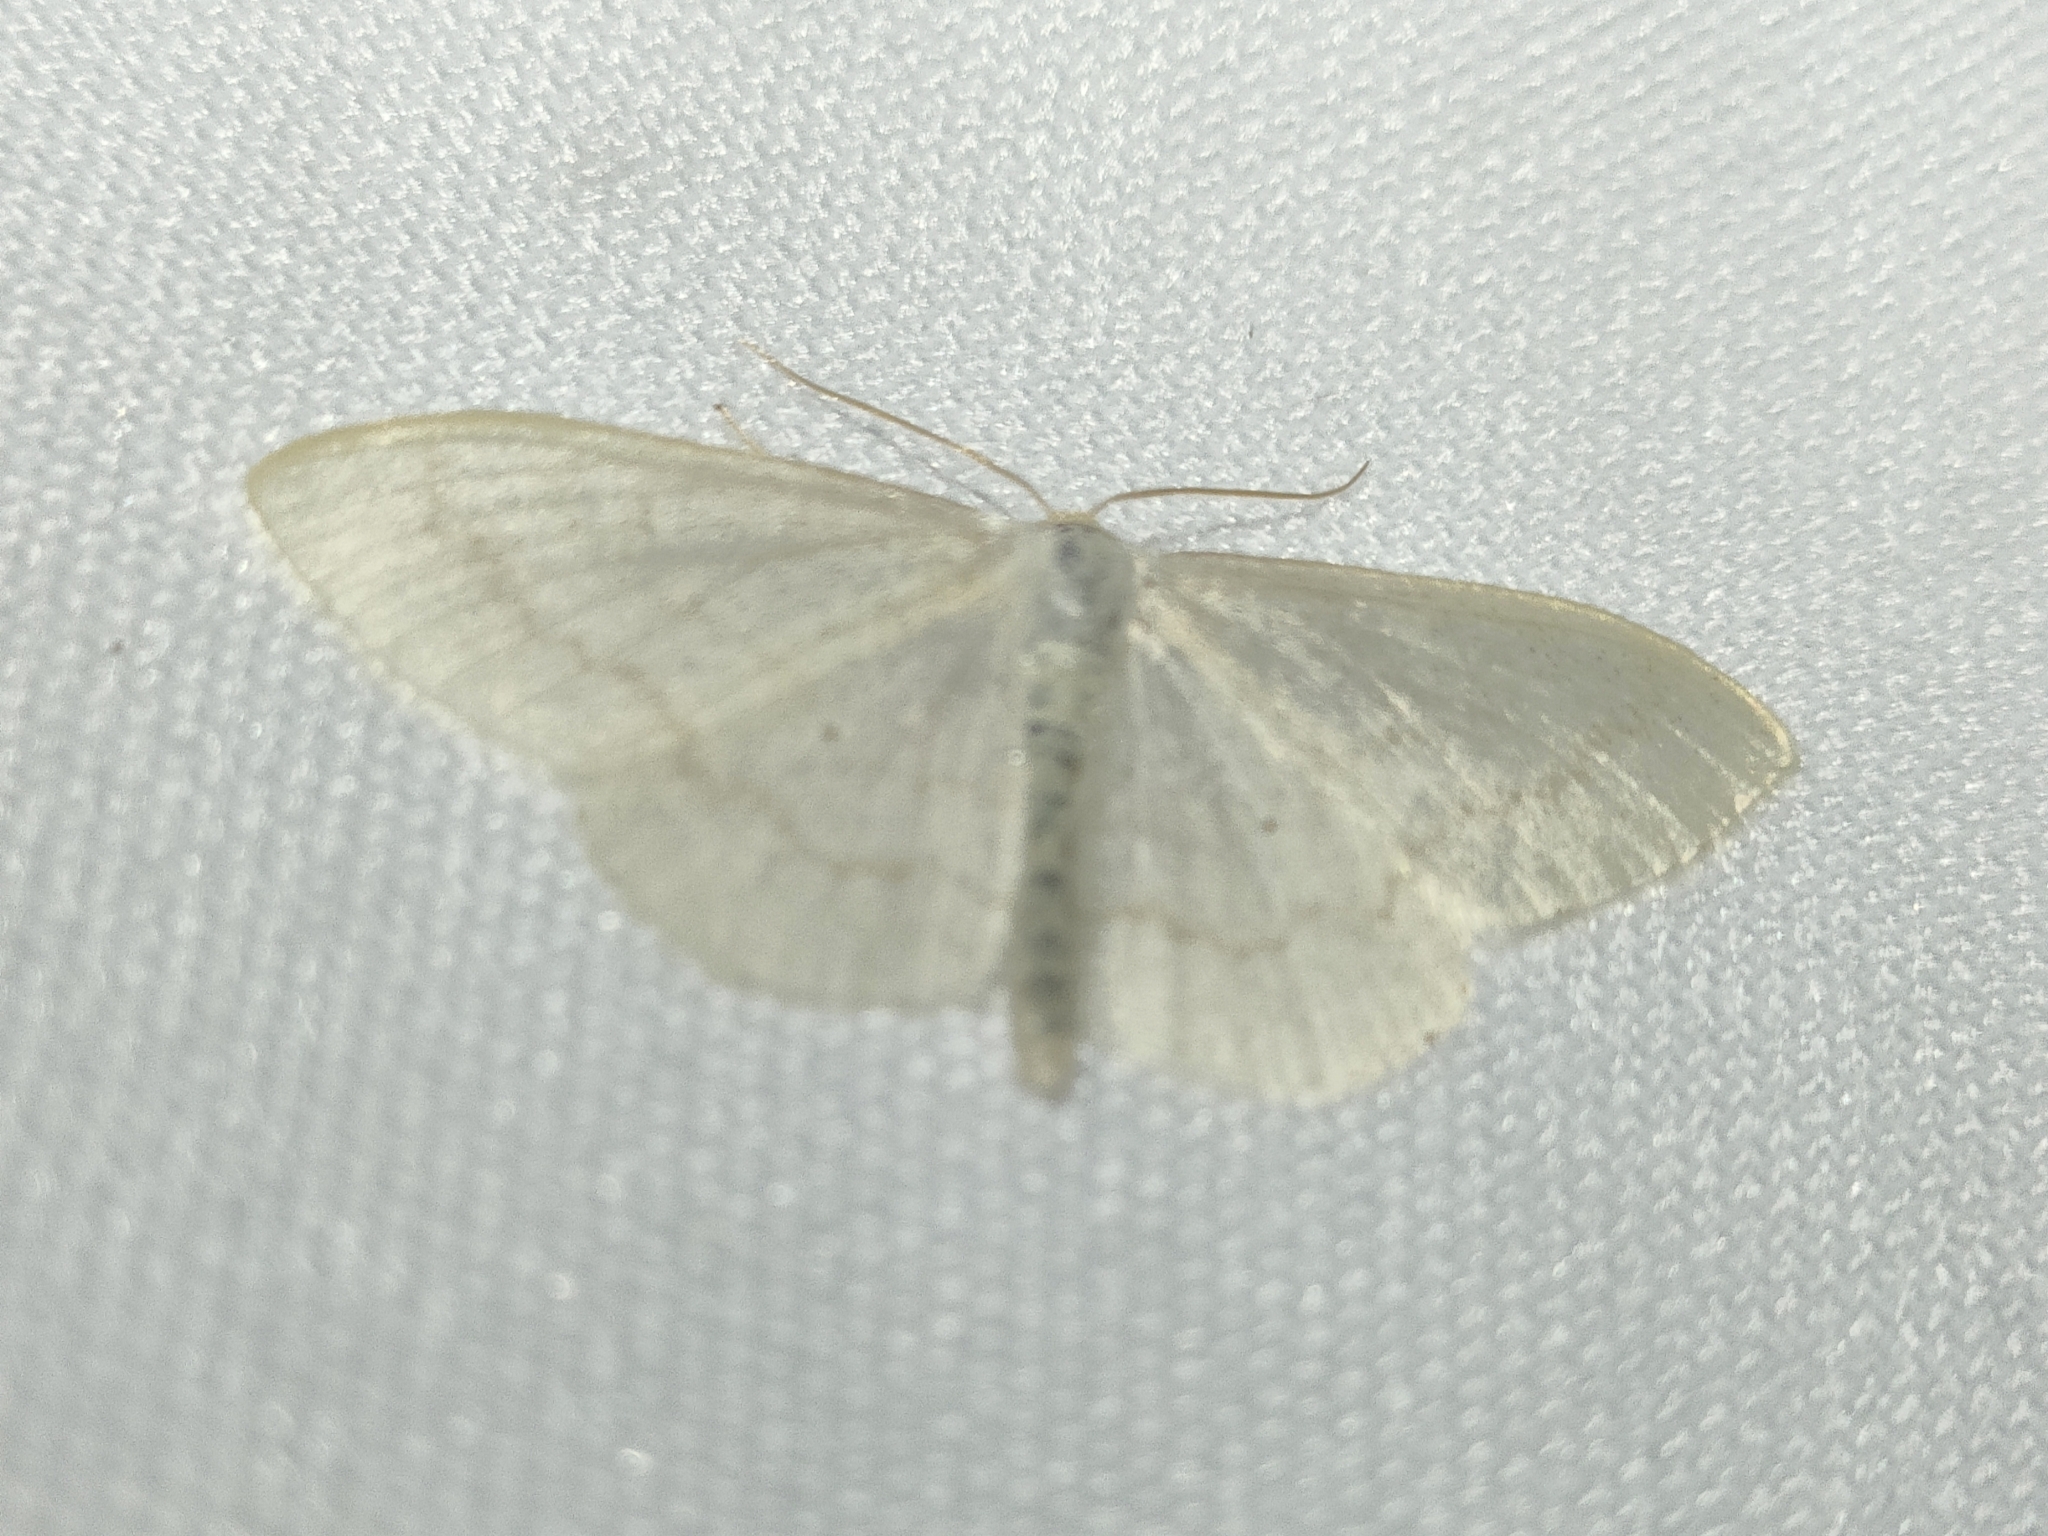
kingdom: Animalia
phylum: Arthropoda
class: Insecta
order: Lepidoptera
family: Geometridae
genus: Scopula
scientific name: Scopula floslactata
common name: Cream wave
